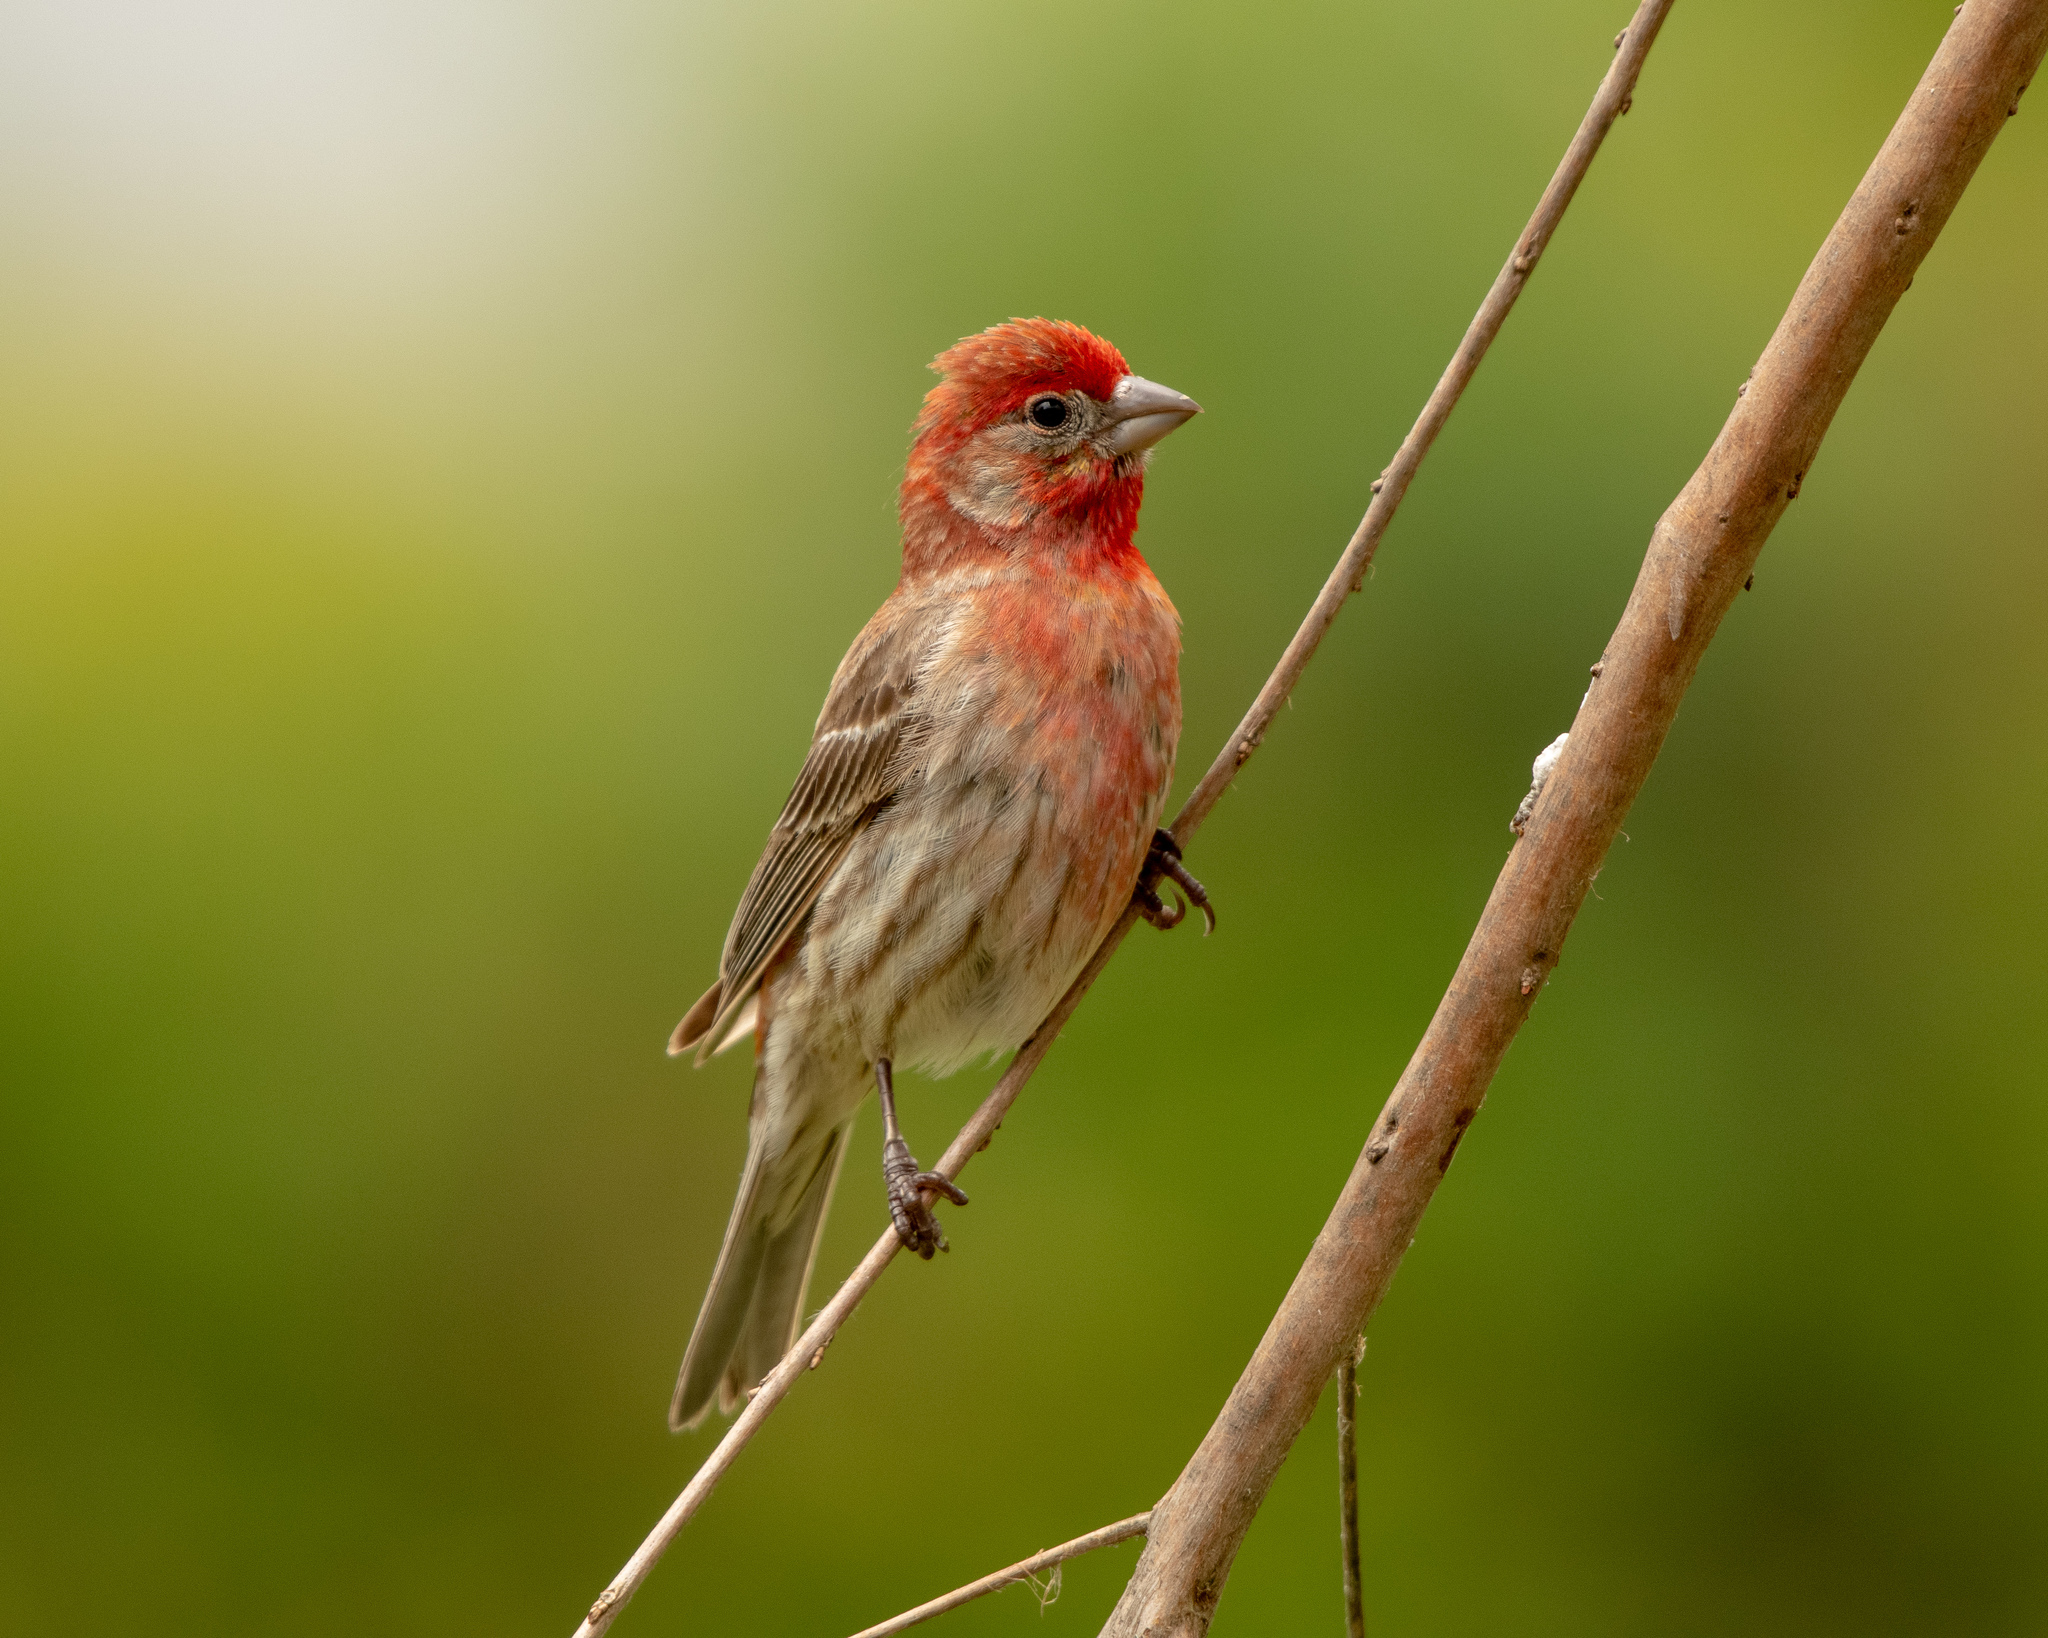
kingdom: Animalia
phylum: Chordata
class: Aves
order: Passeriformes
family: Fringillidae
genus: Haemorhous
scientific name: Haemorhous mexicanus
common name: House finch
